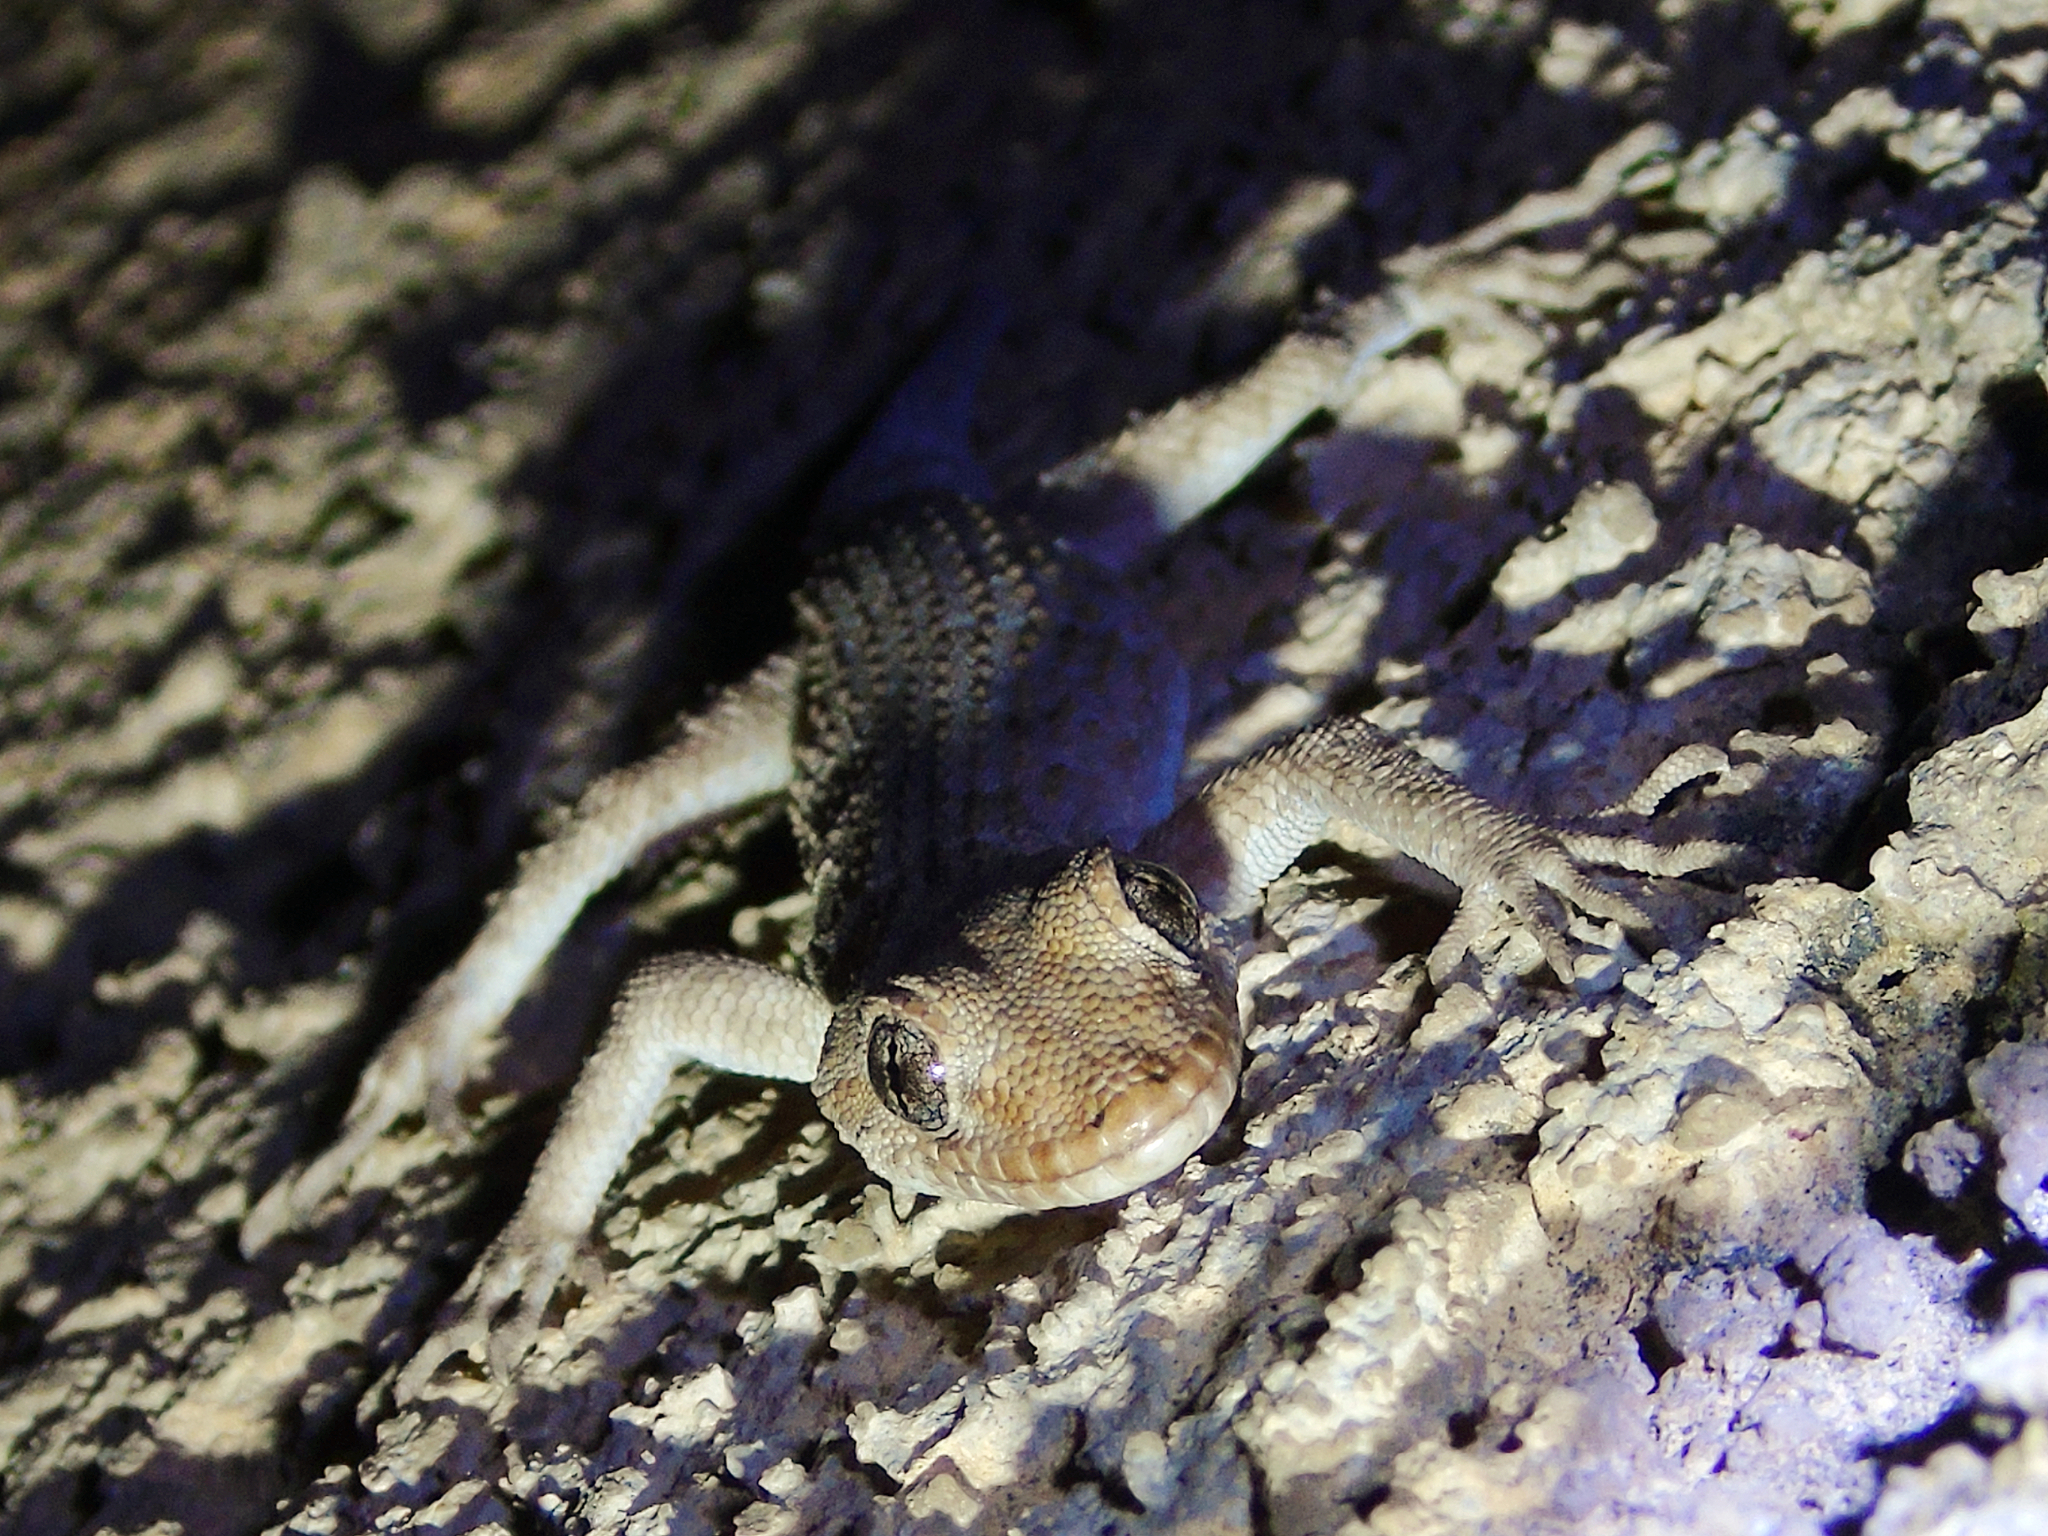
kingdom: Animalia
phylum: Chordata
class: Squamata
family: Gekkonidae
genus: Mediodactylus
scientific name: Mediodactylus kotschyi
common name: Kotschy's gecko
